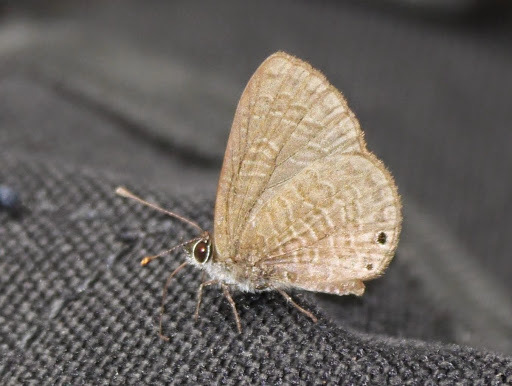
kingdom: Animalia
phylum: Arthropoda
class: Insecta
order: Lepidoptera
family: Lycaenidae
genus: Pseudonacaduba
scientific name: Pseudonacaduba sichela
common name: African line blue
